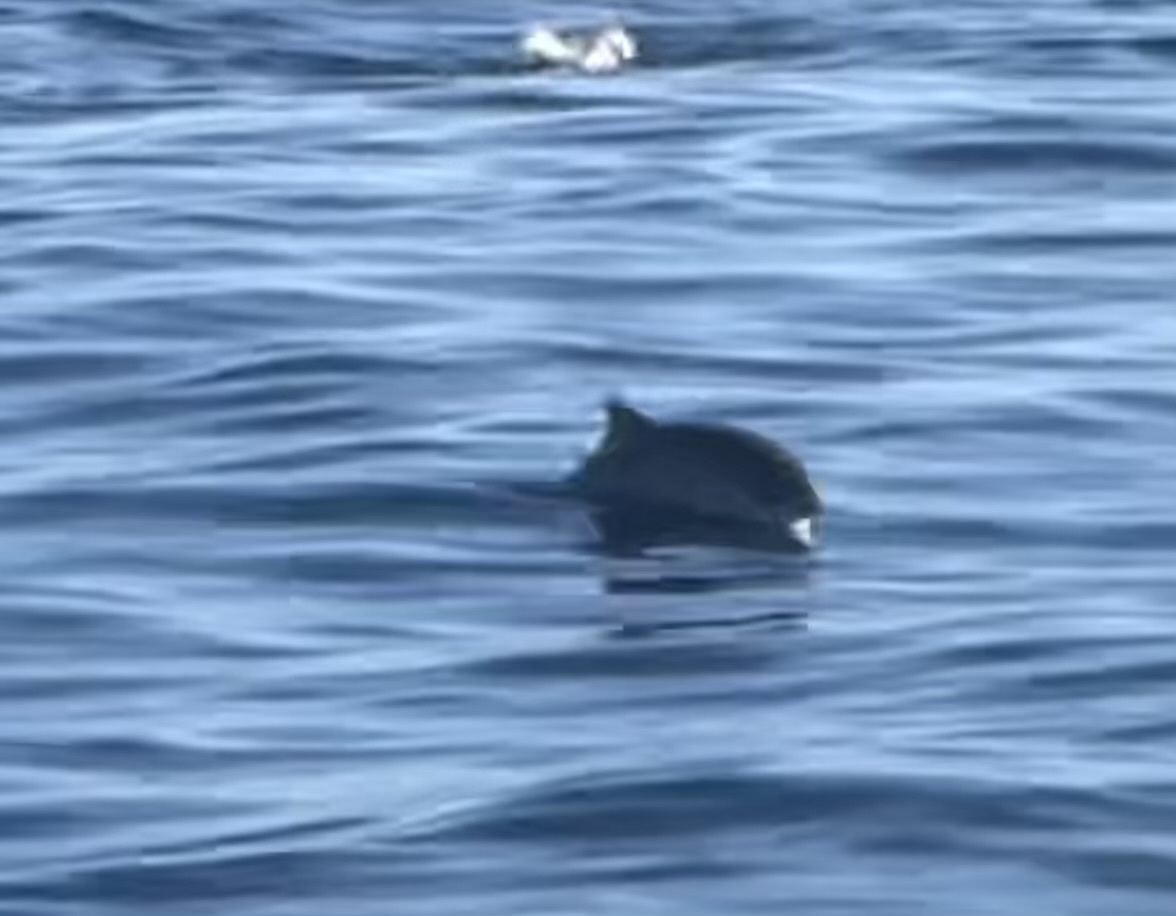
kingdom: Animalia
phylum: Chordata
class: Mammalia
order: Cetacea
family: Phocoenidae
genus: Phocoena
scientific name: Phocoena phocoena
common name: Harbor porpoise
